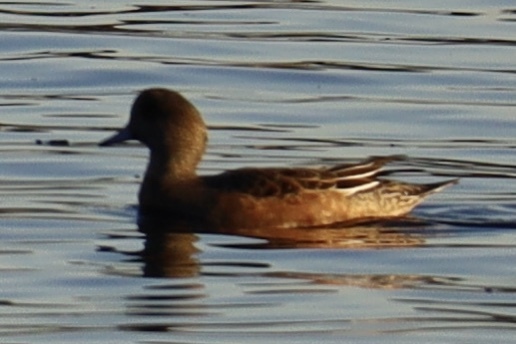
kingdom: Animalia
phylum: Chordata
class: Aves
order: Anseriformes
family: Anatidae
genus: Mareca
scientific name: Mareca americana
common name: American wigeon
